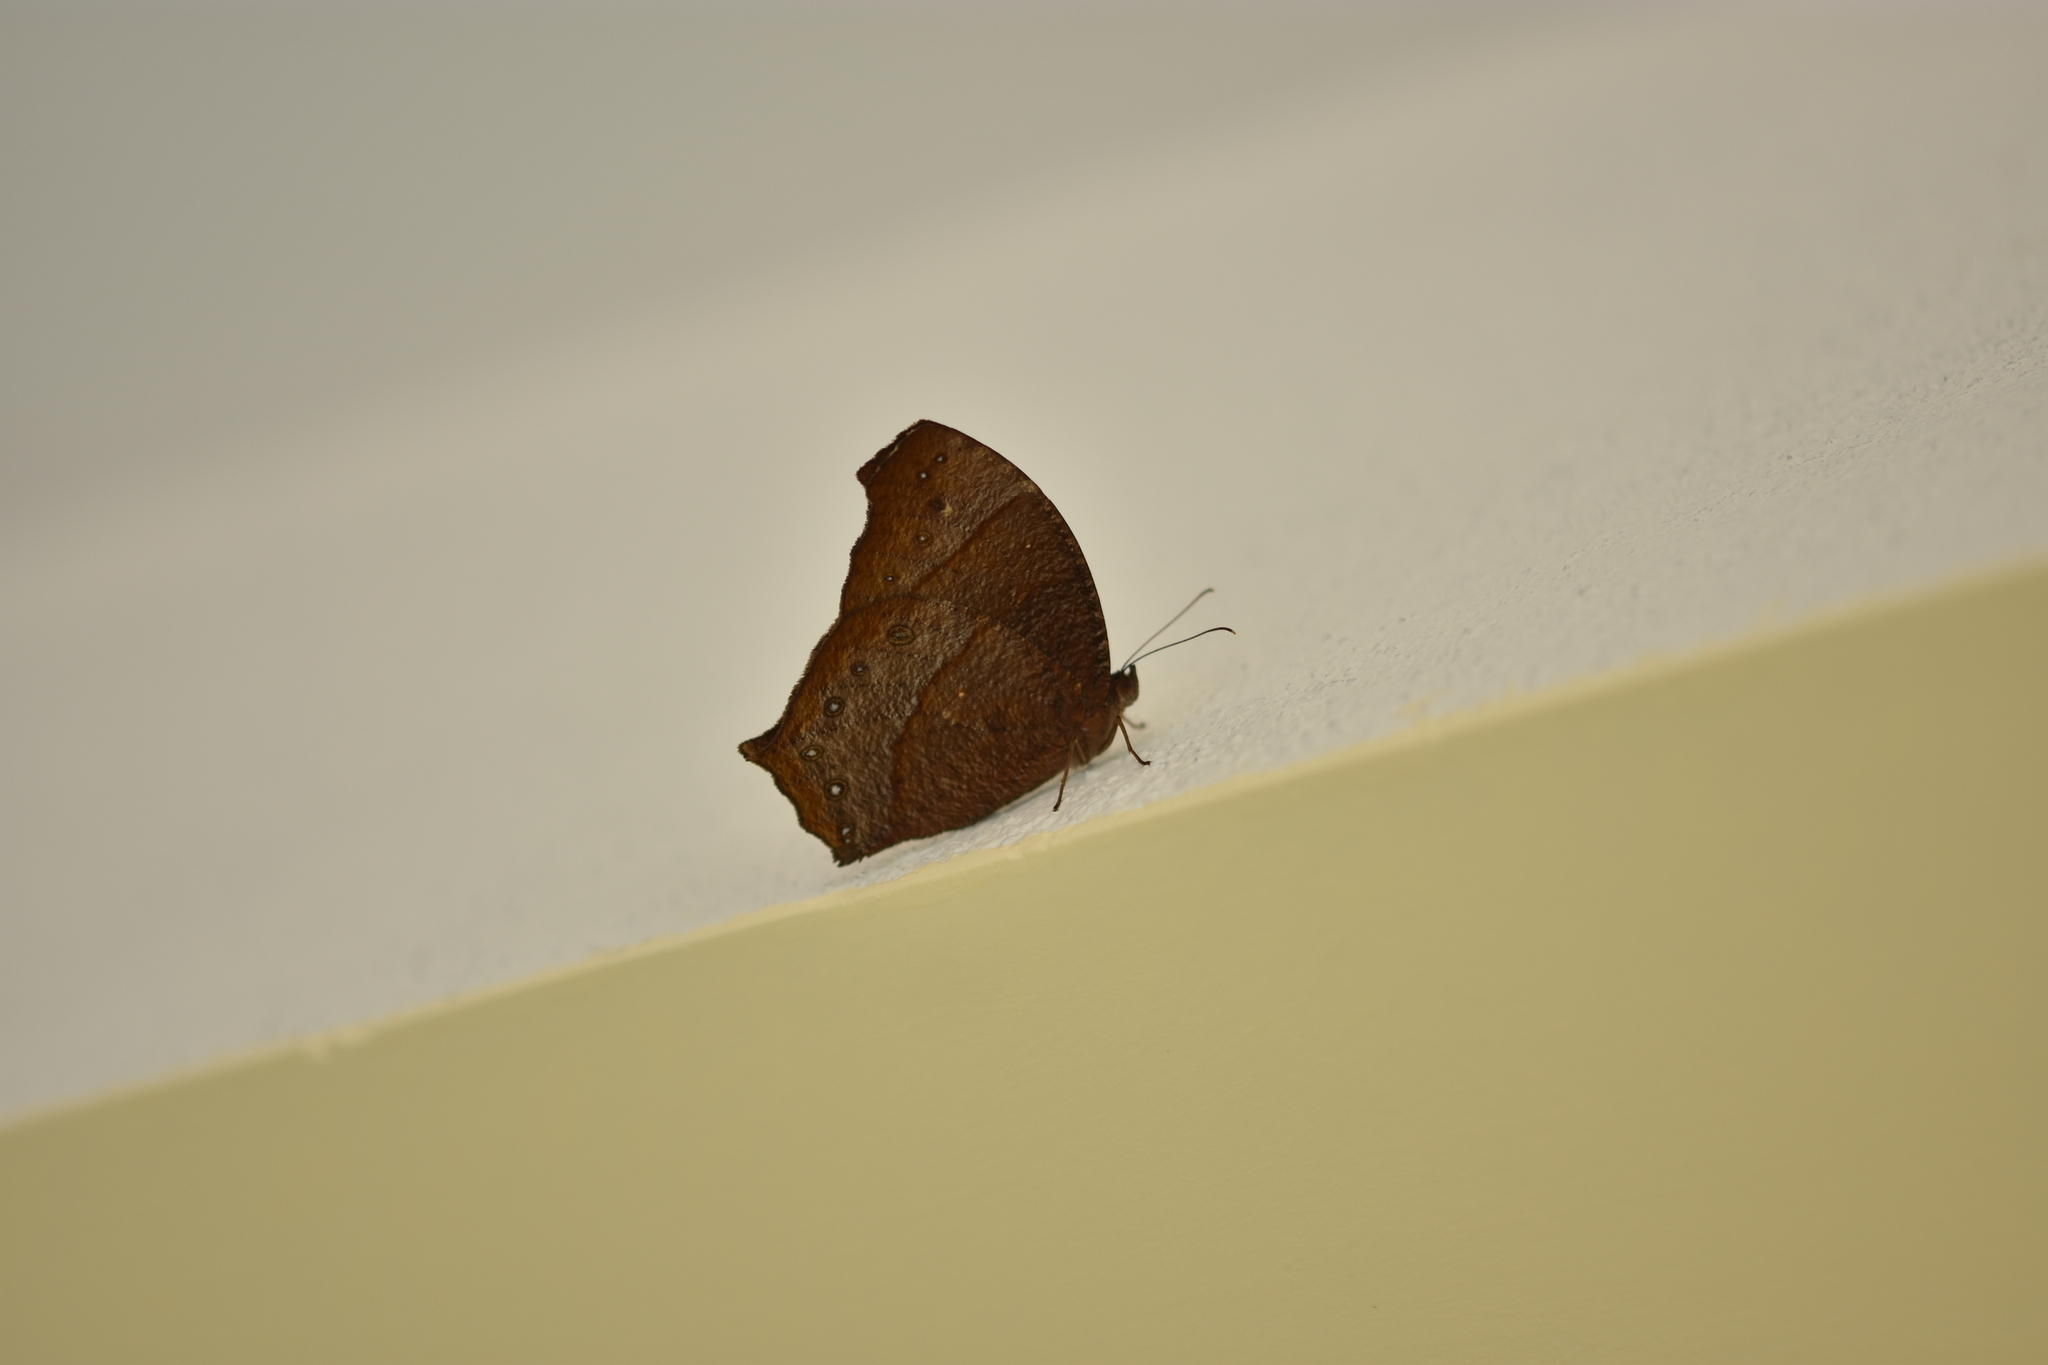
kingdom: Animalia
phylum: Arthropoda
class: Insecta
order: Lepidoptera
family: Nymphalidae
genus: Melanitis
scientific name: Melanitis phedima
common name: Dark evening brown
